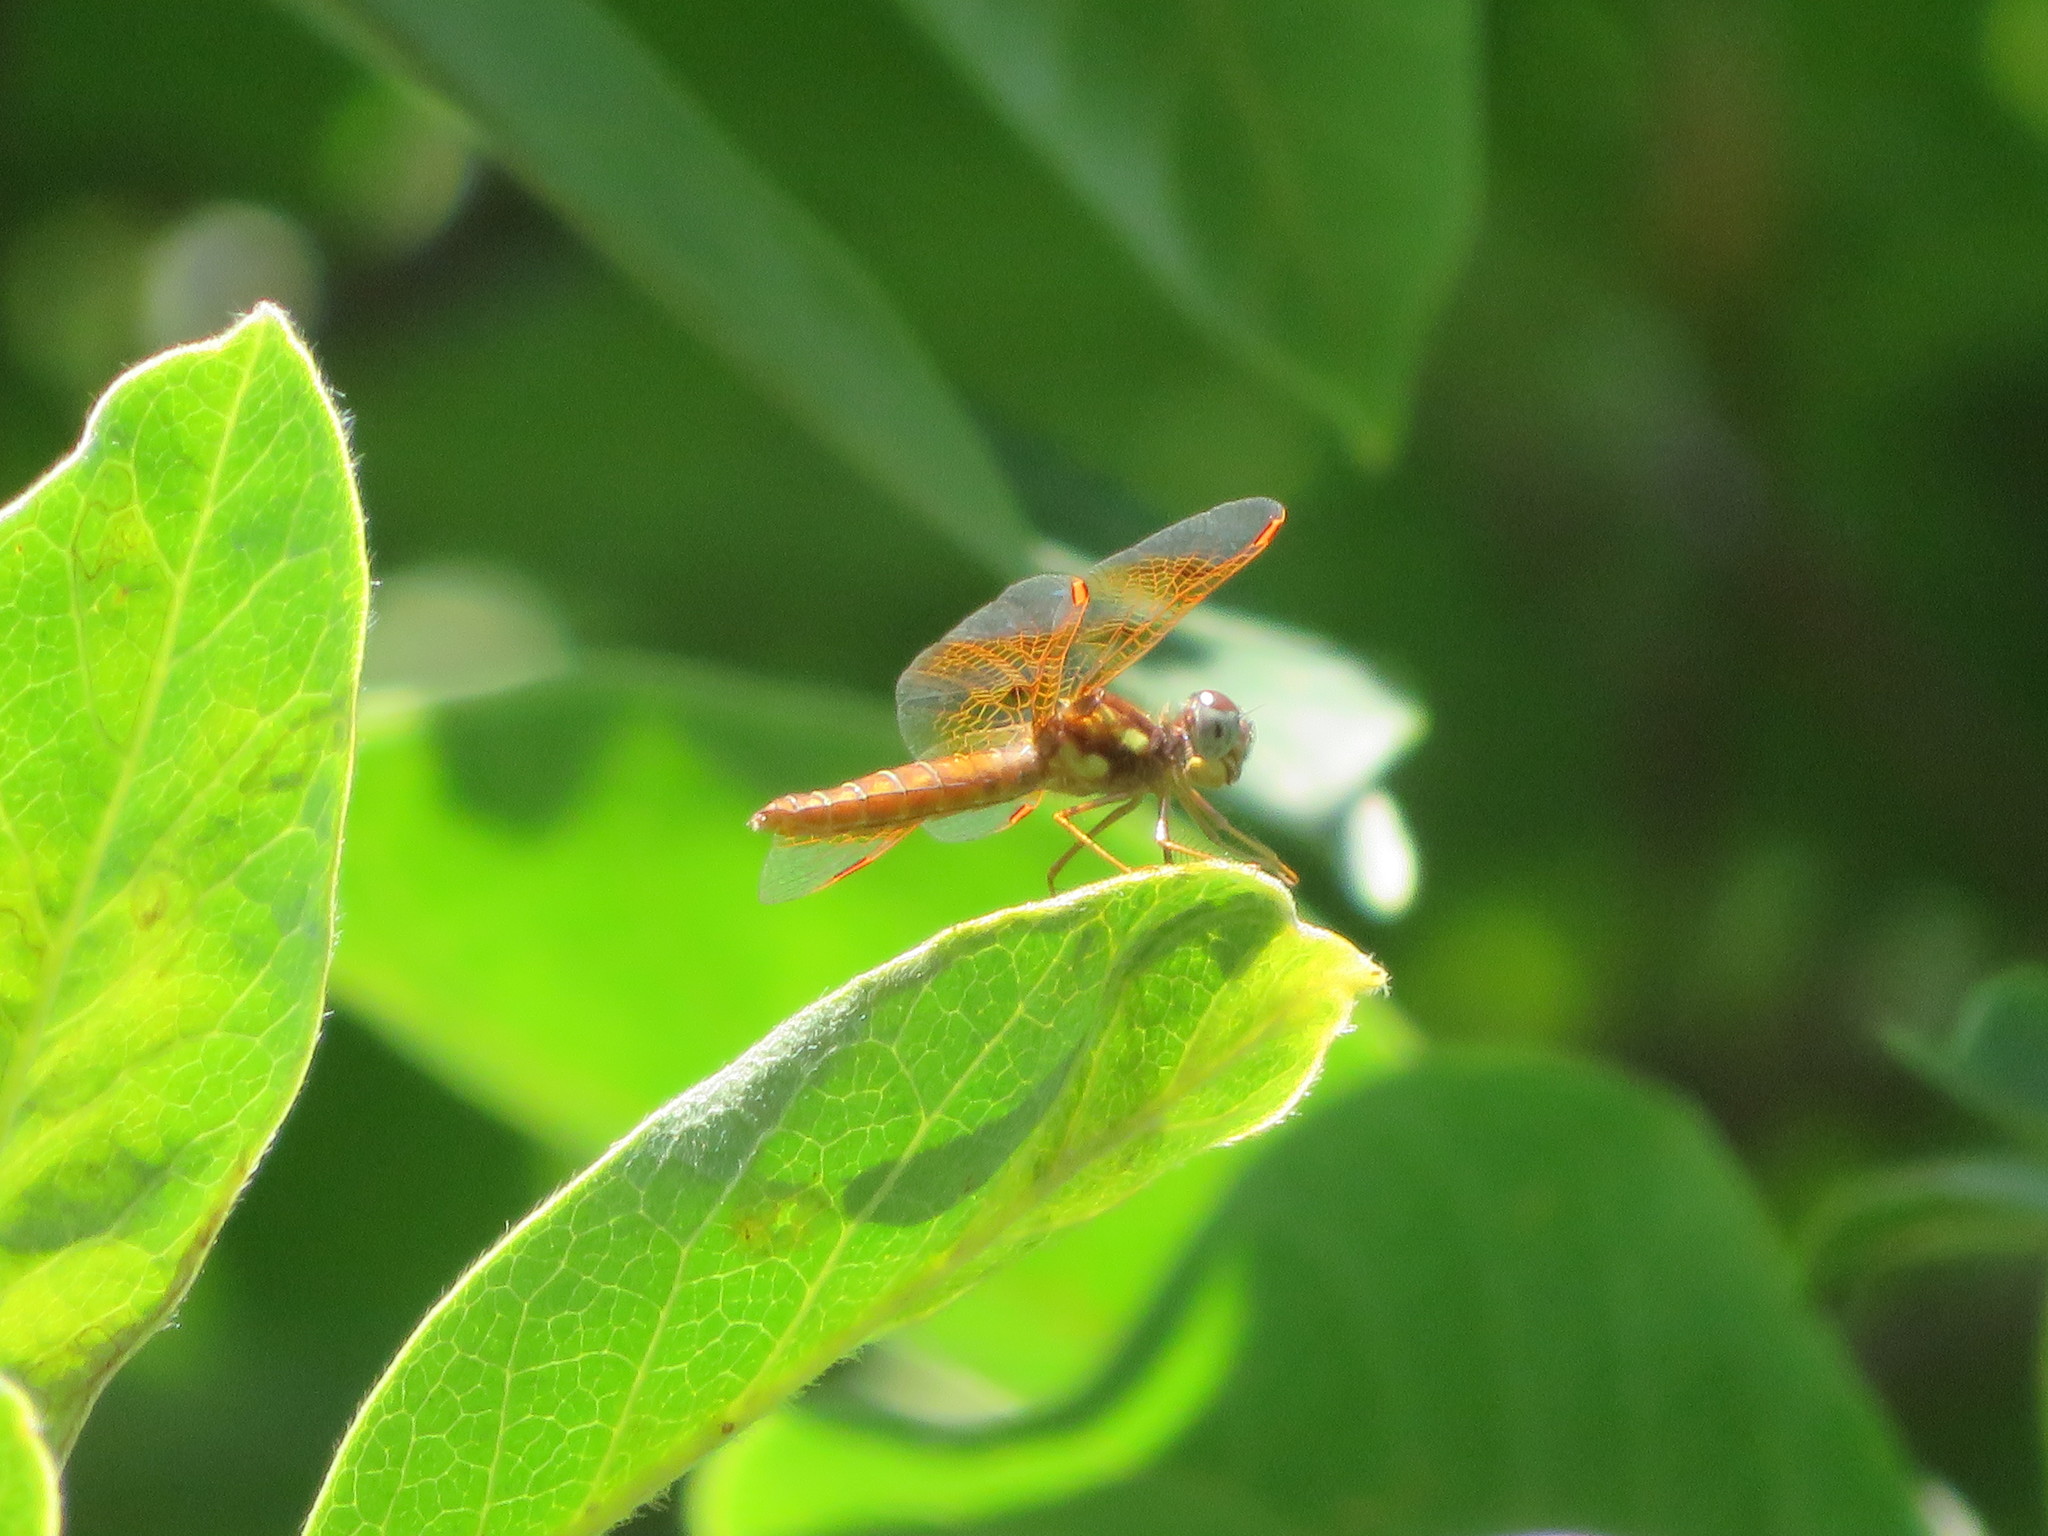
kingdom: Animalia
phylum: Arthropoda
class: Insecta
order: Odonata
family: Libellulidae
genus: Perithemis
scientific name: Perithemis tenera
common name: Eastern amberwing
